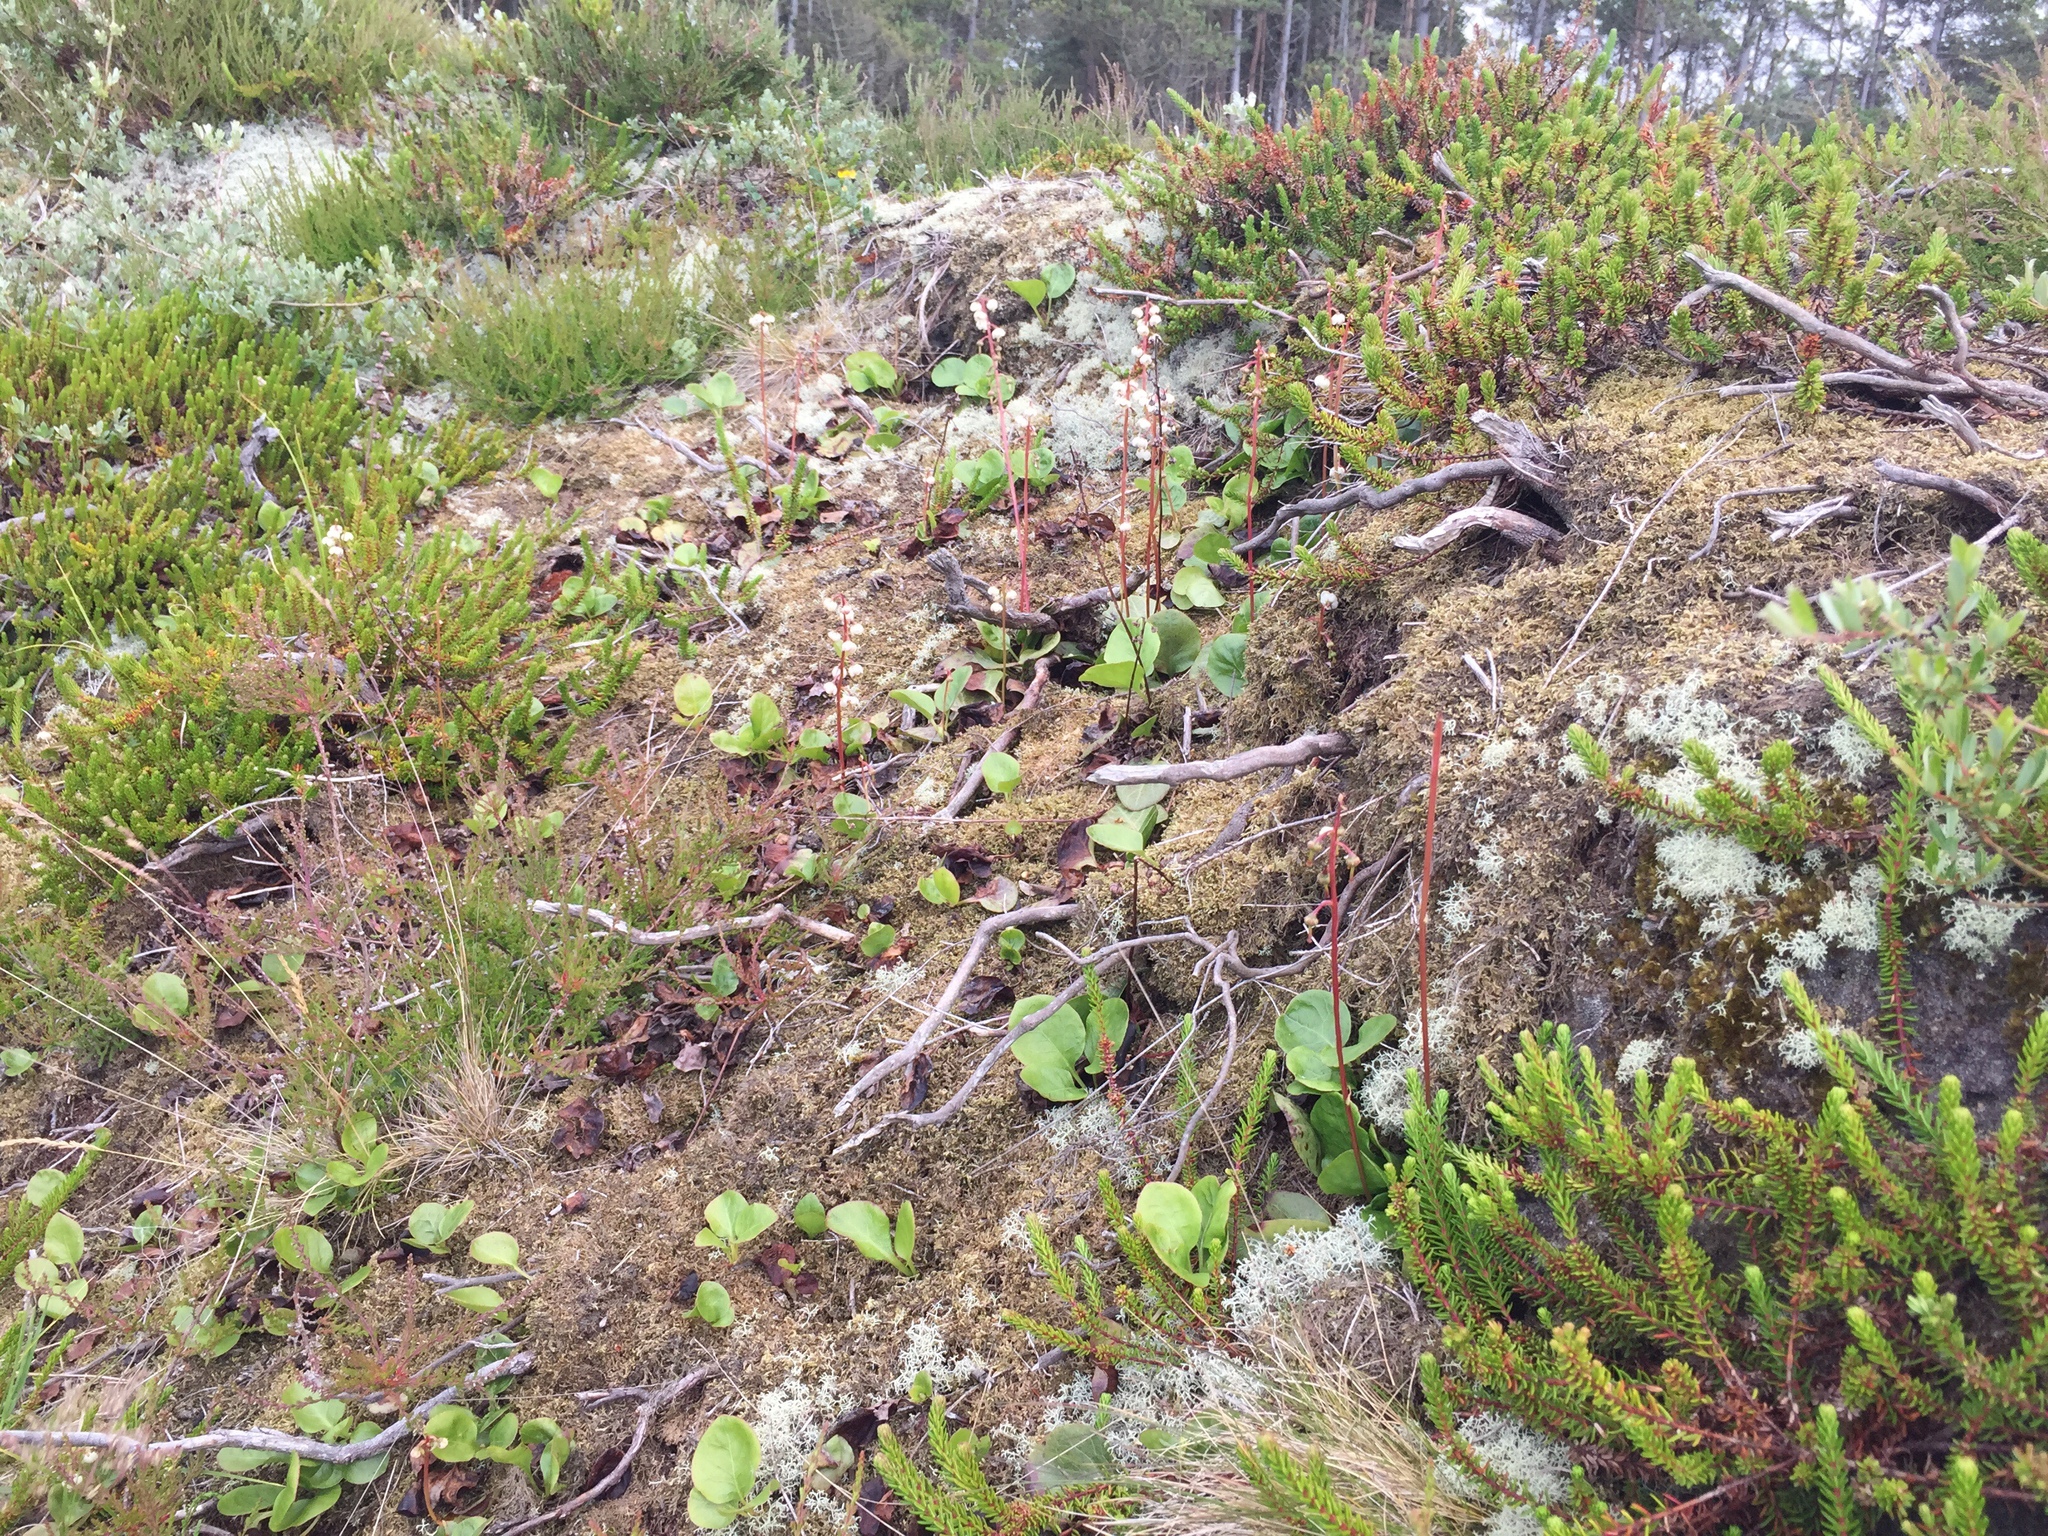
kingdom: Plantae
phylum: Tracheophyta
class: Magnoliopsida
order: Ericales
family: Ericaceae
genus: Pyrola
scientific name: Pyrola media
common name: Intermediate wintergreen
